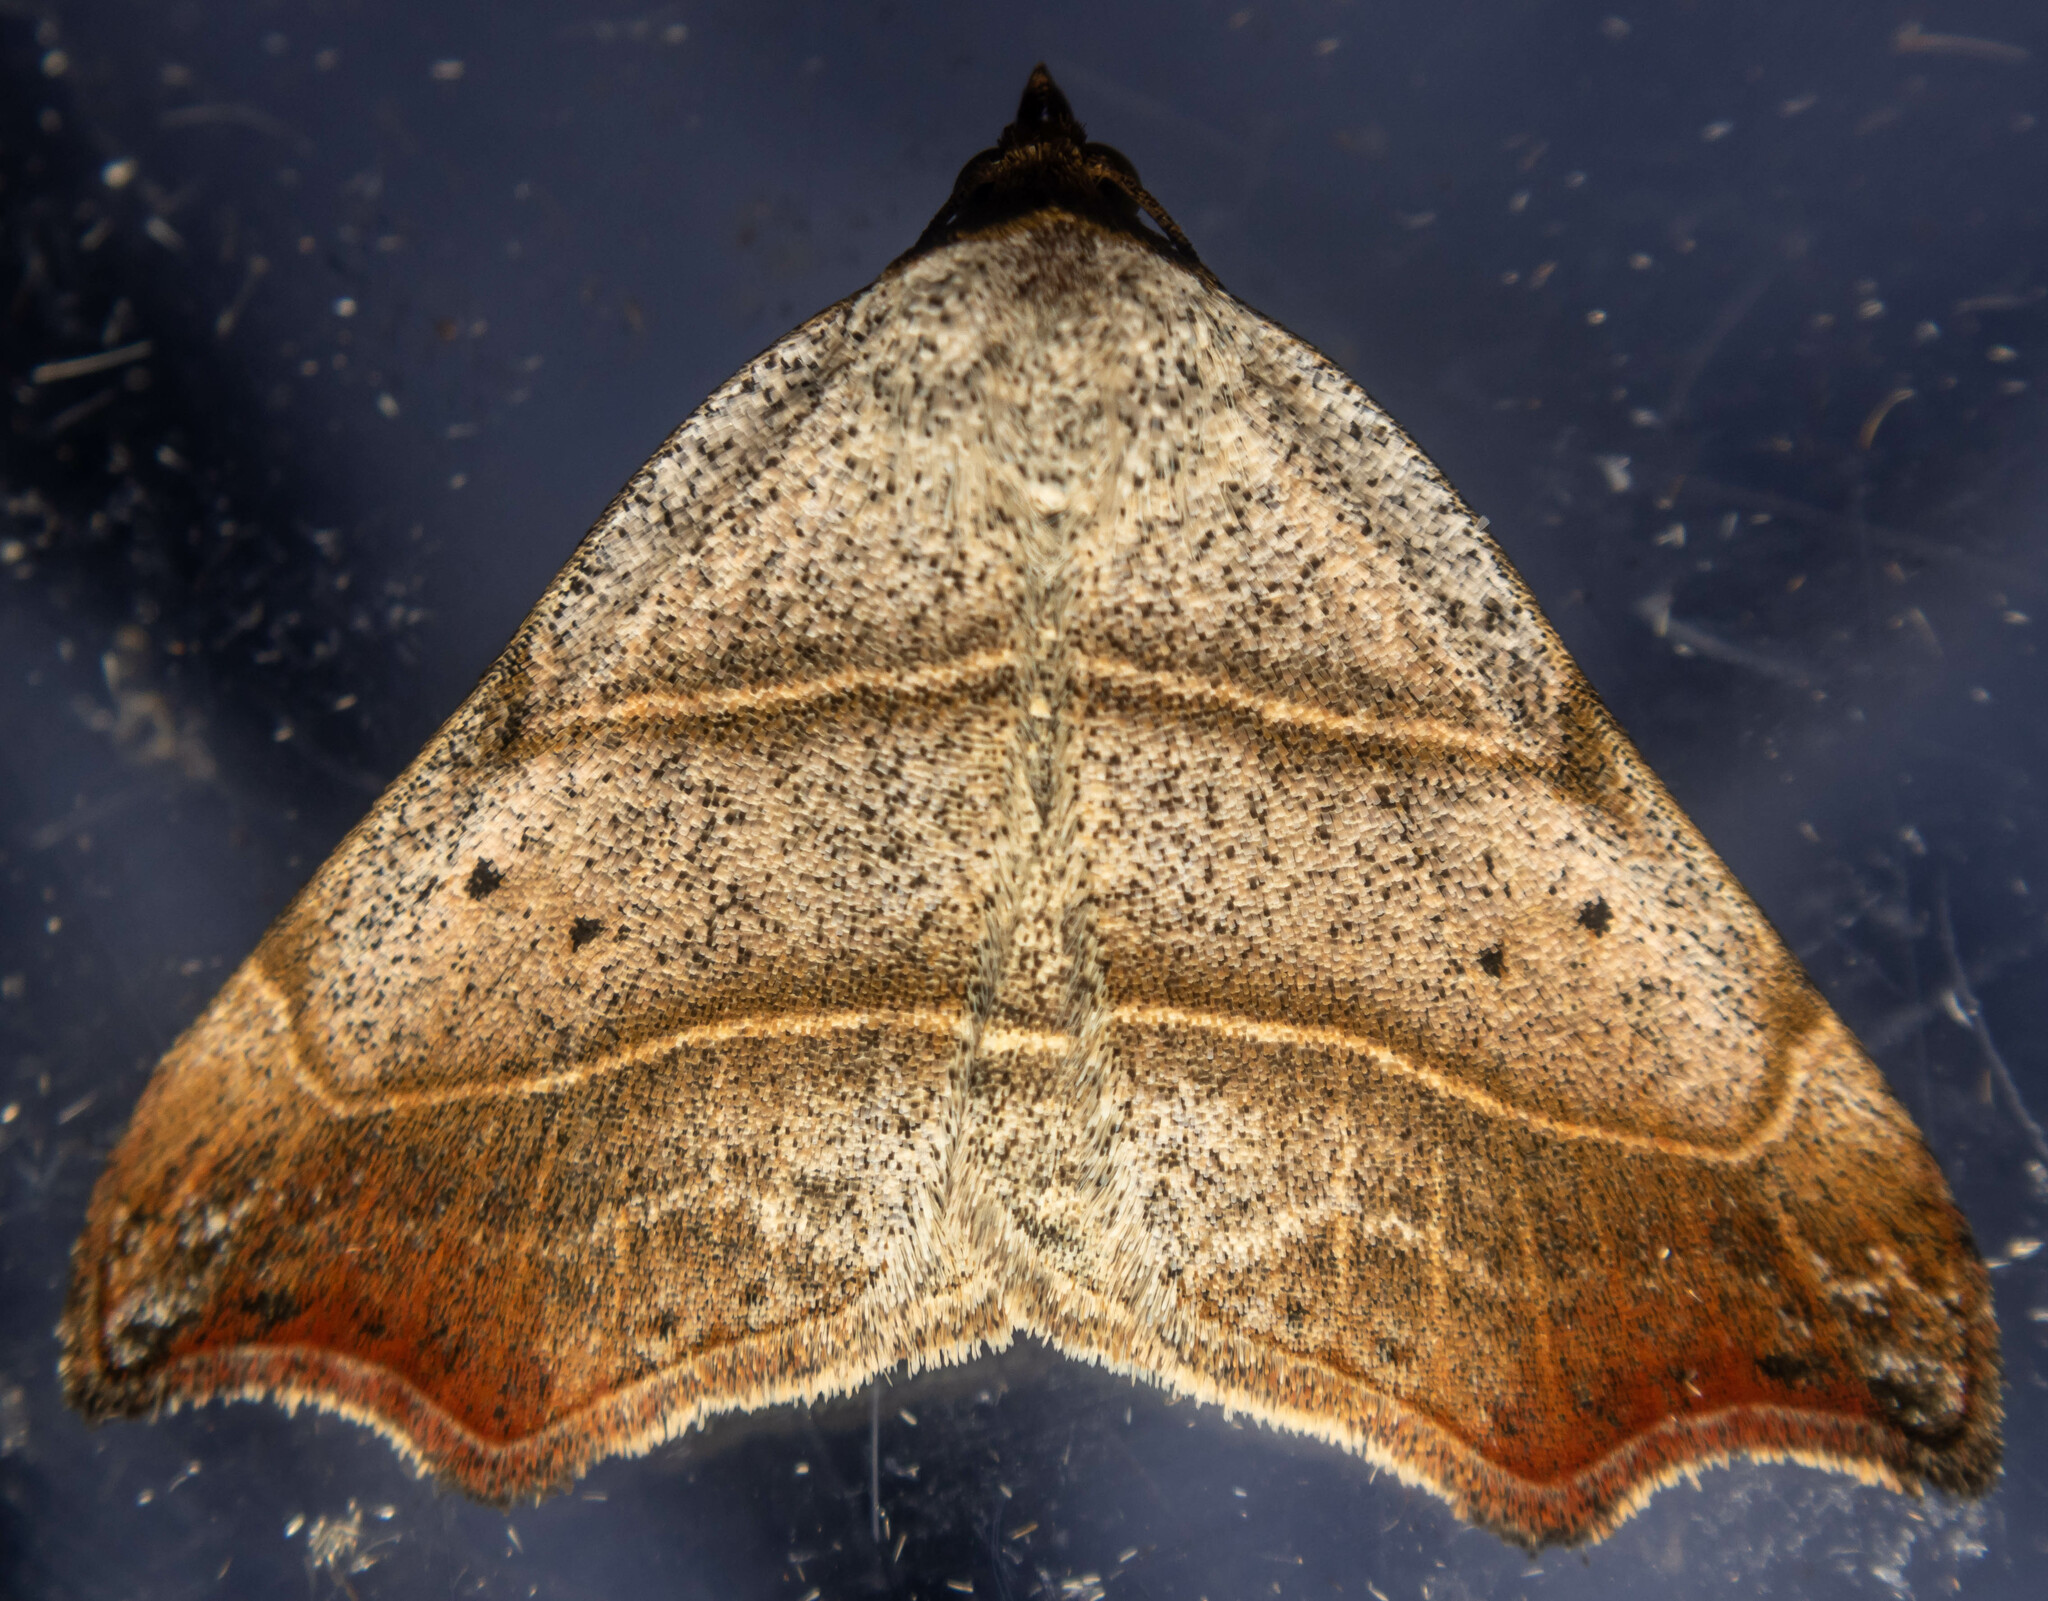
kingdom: Animalia
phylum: Arthropoda
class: Insecta
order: Lepidoptera
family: Erebidae
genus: Laspeyria
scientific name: Laspeyria flexula
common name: Beautiful hook-tip
